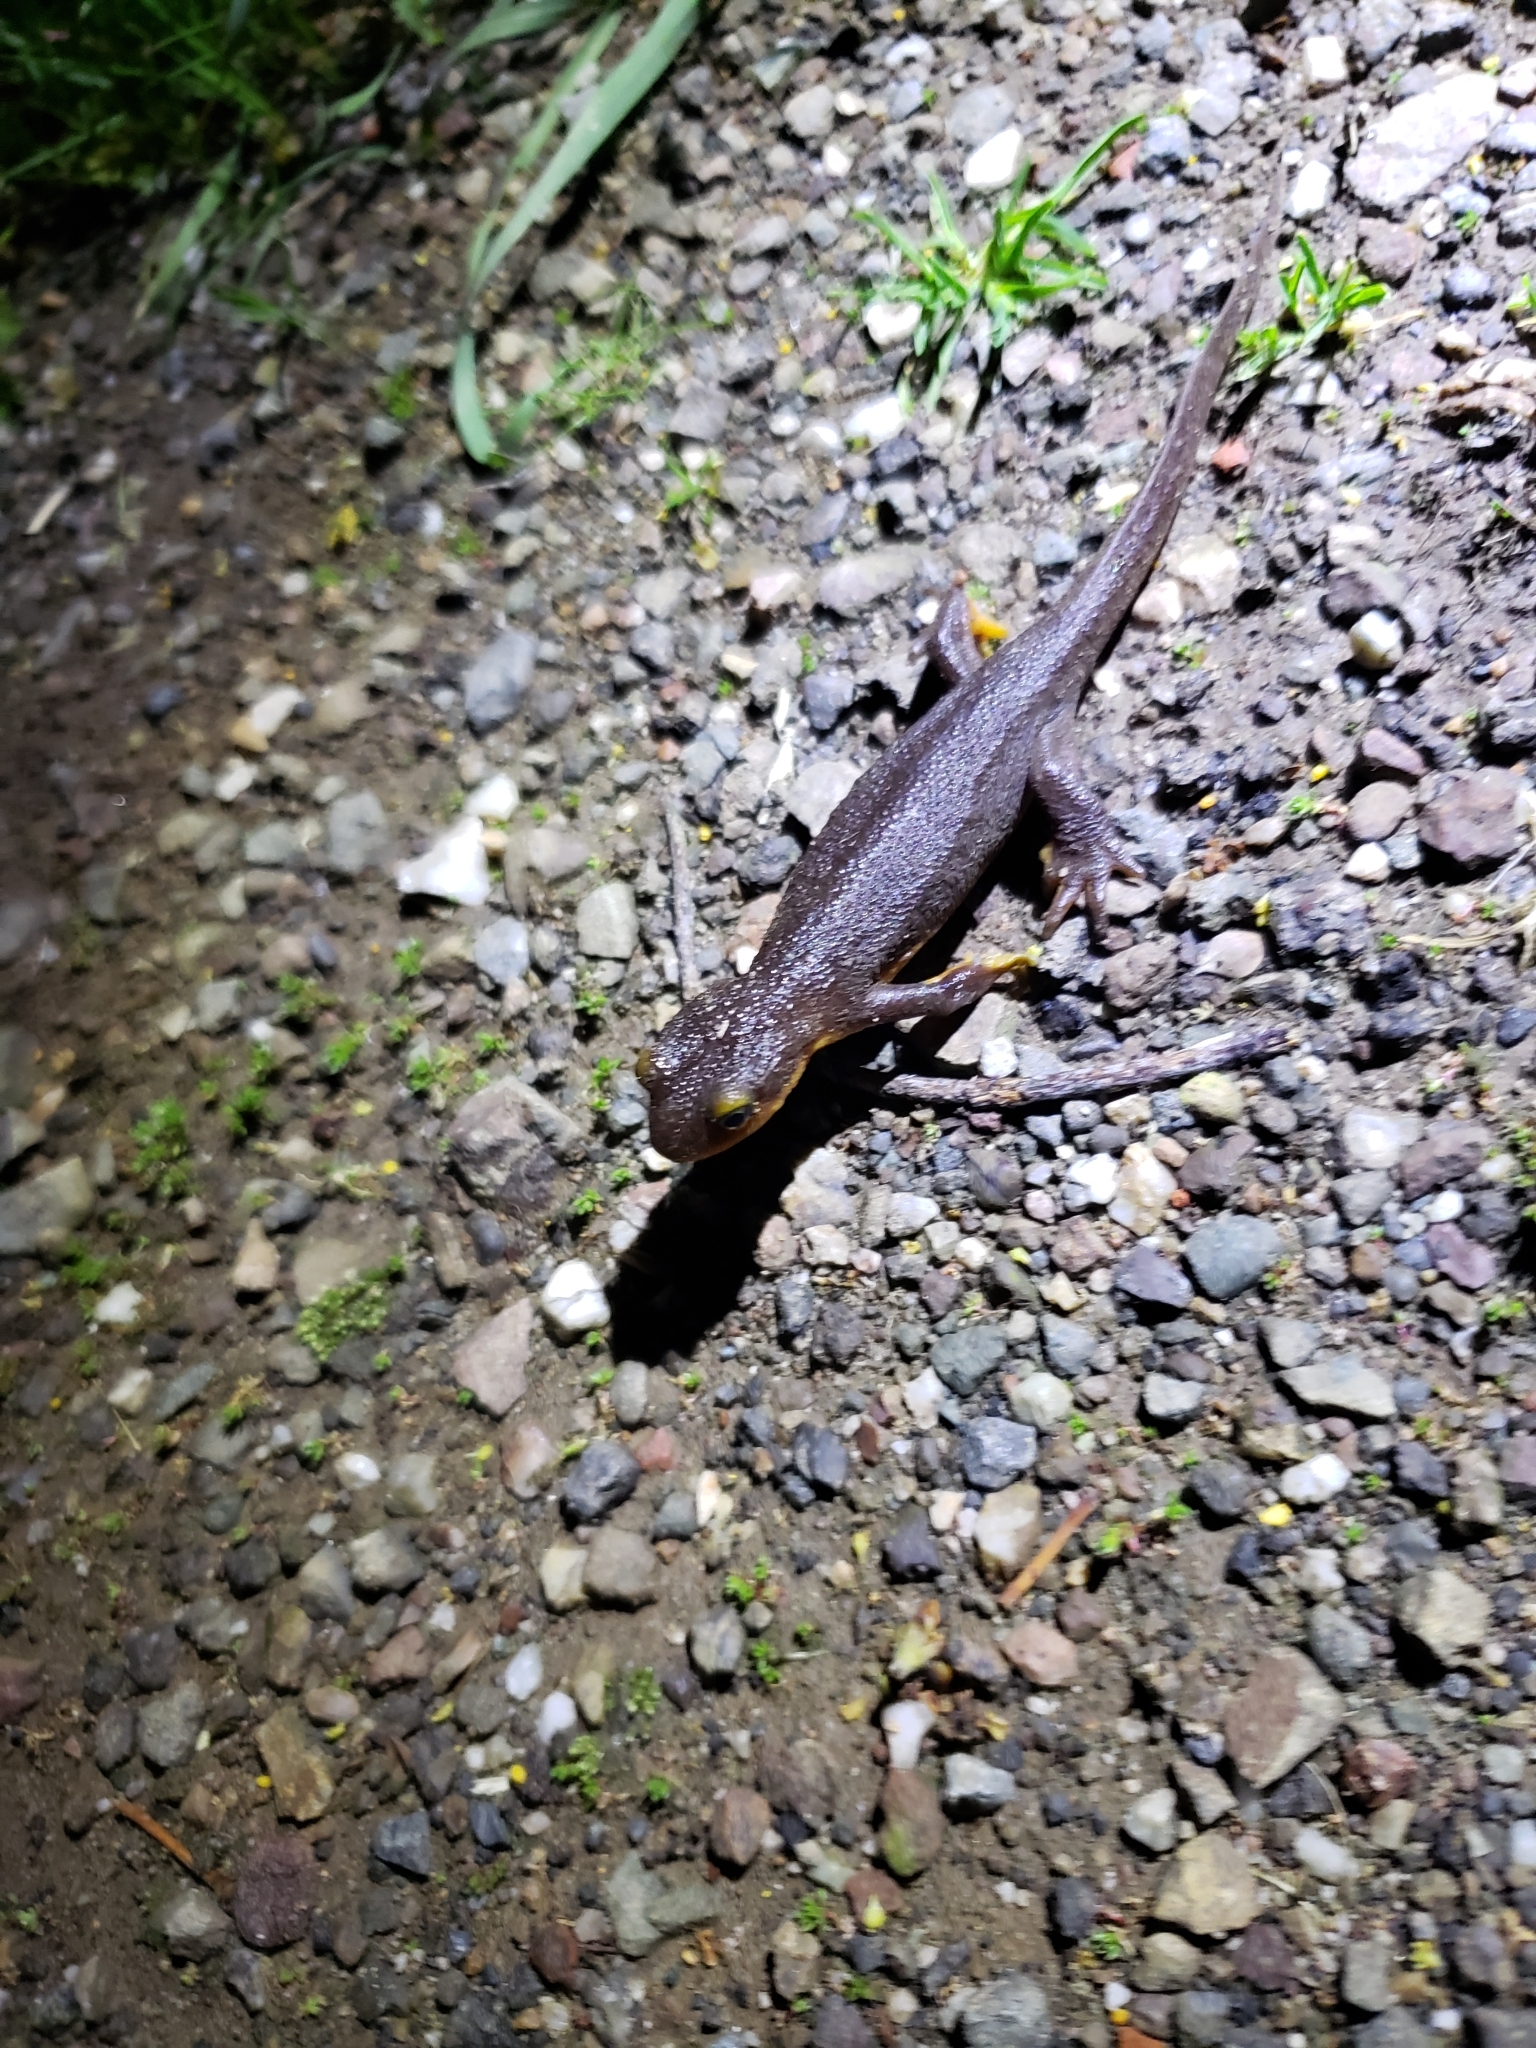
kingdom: Animalia
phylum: Chordata
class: Amphibia
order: Caudata
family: Salamandridae
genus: Taricha
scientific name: Taricha torosa
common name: California newt
